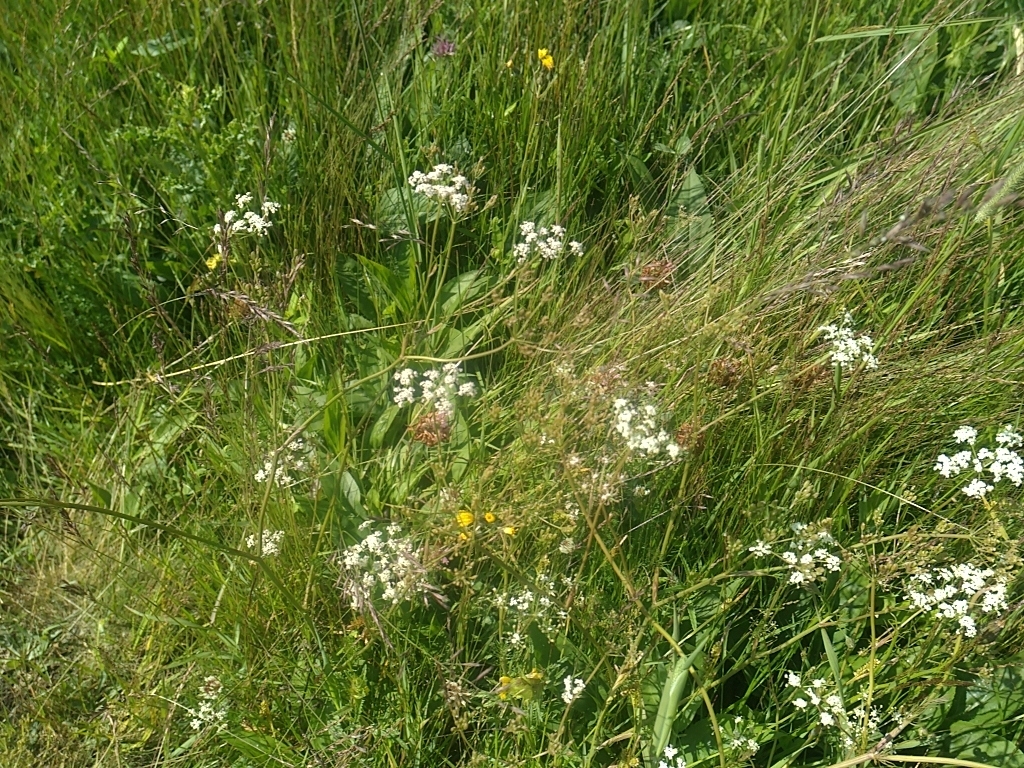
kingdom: Plantae
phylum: Tracheophyta
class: Magnoliopsida
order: Apiales
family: Apiaceae
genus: Carum
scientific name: Carum carvi
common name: Caraway
